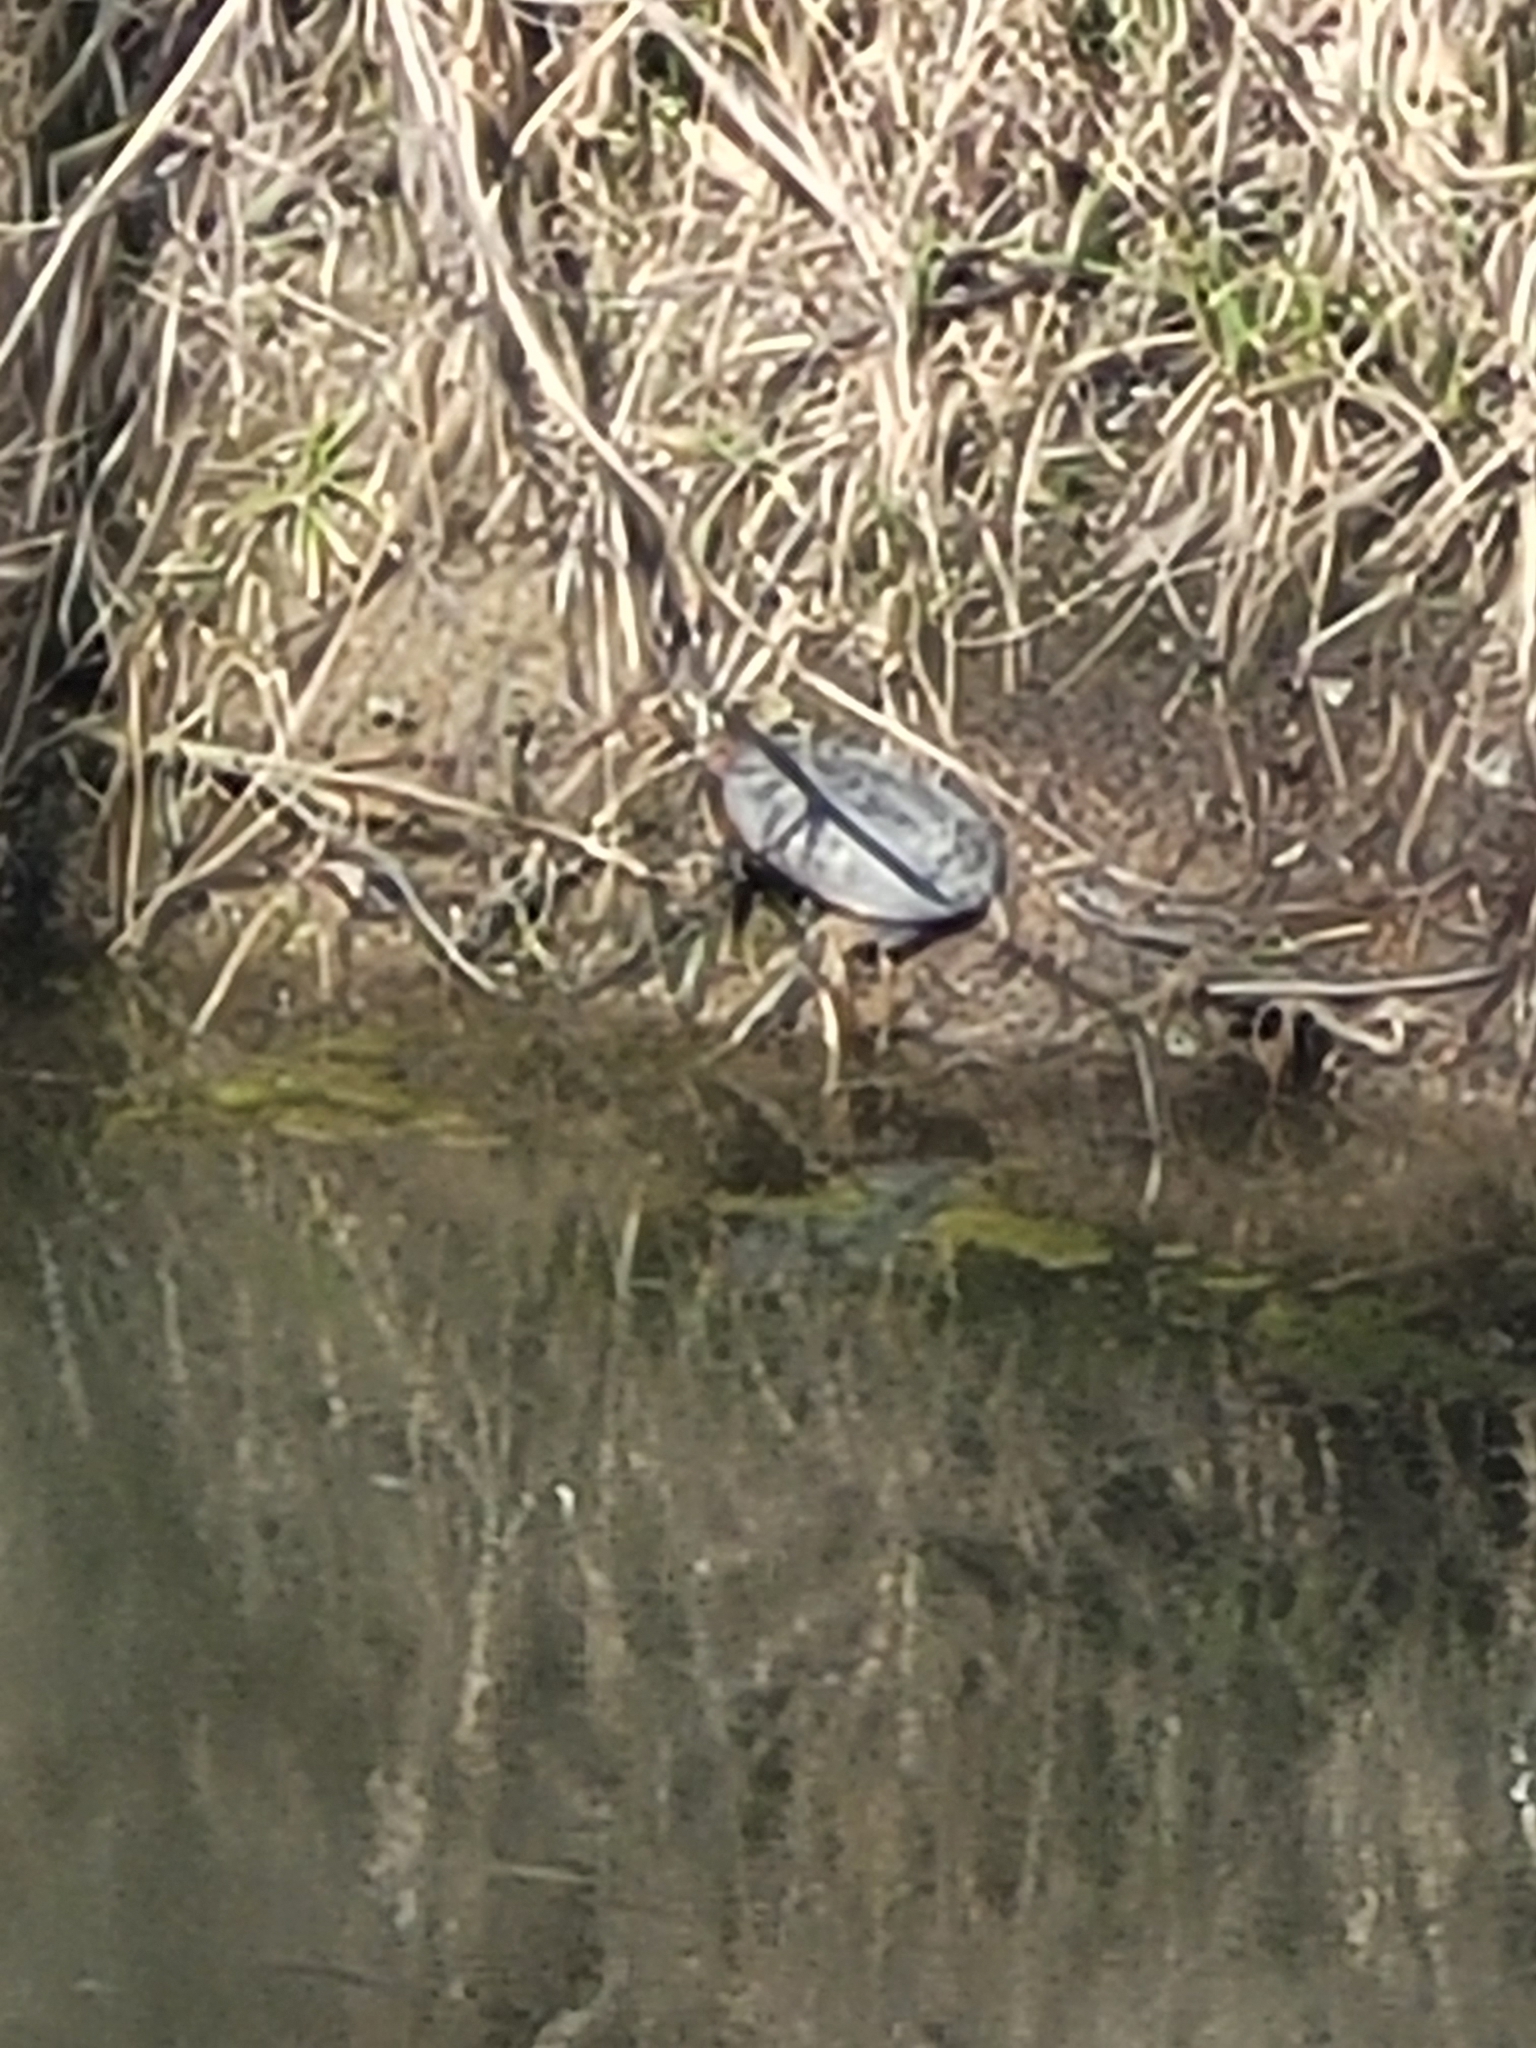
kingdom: Animalia
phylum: Chordata
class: Testudines
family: Emydidae
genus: Chrysemys
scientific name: Chrysemys picta
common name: Painted turtle
